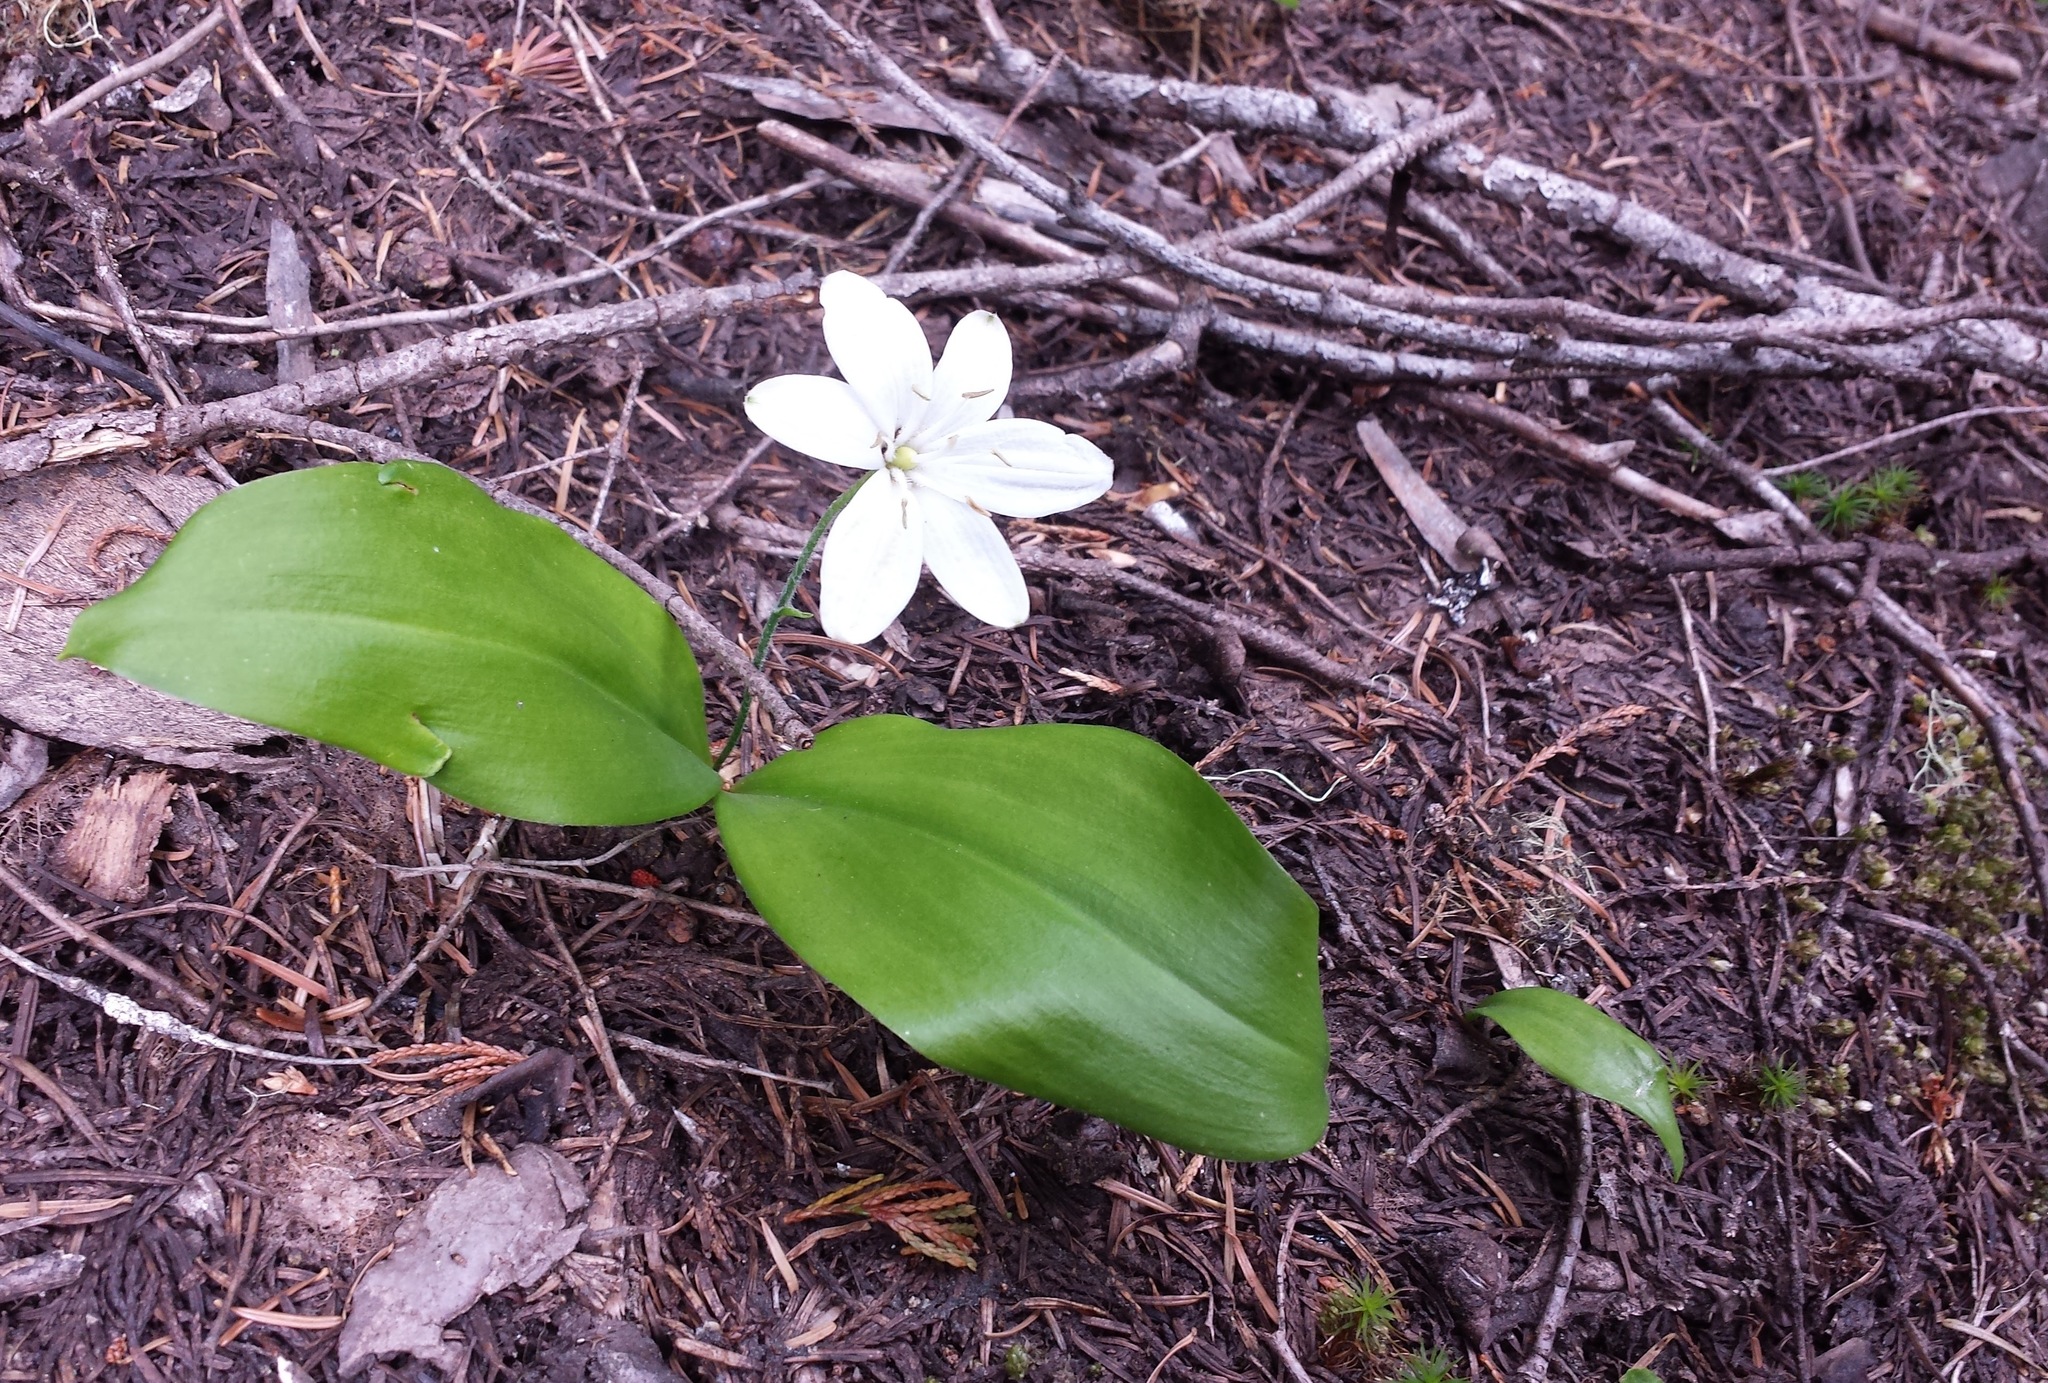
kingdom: Plantae
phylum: Tracheophyta
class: Liliopsida
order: Liliales
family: Liliaceae
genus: Clintonia
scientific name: Clintonia uniflora
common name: Queen's cup
